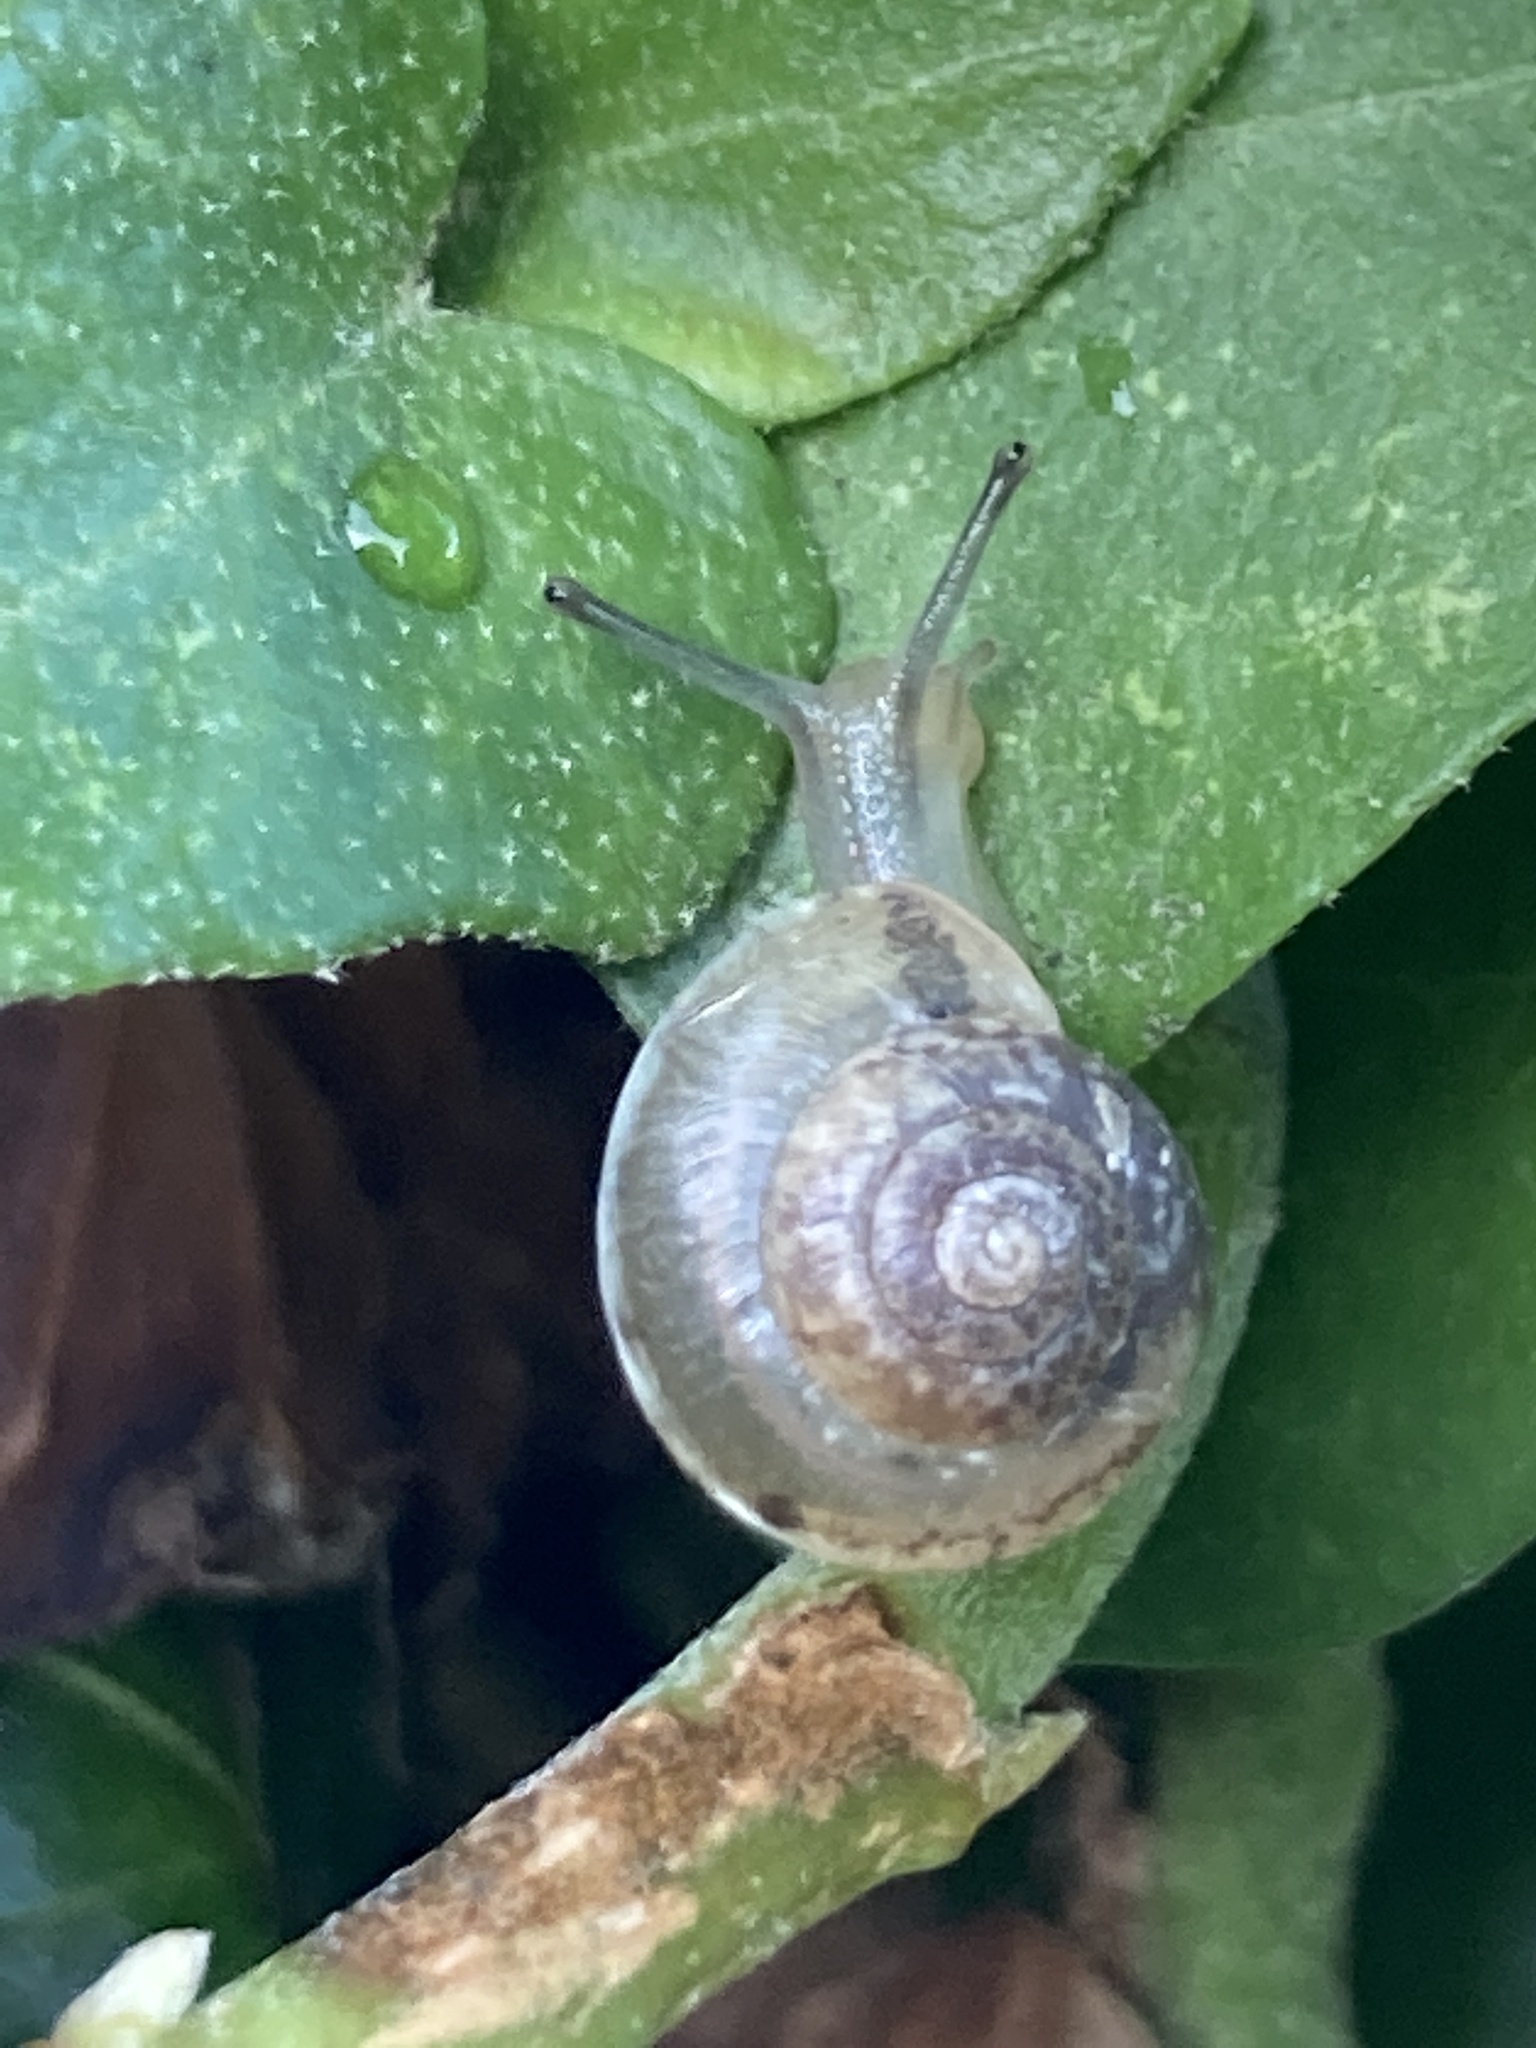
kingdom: Animalia
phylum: Mollusca
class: Gastropoda
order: Stylommatophora
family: Hygromiidae
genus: Hygromia
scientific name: Hygromia cinctella
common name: Girdled snail
